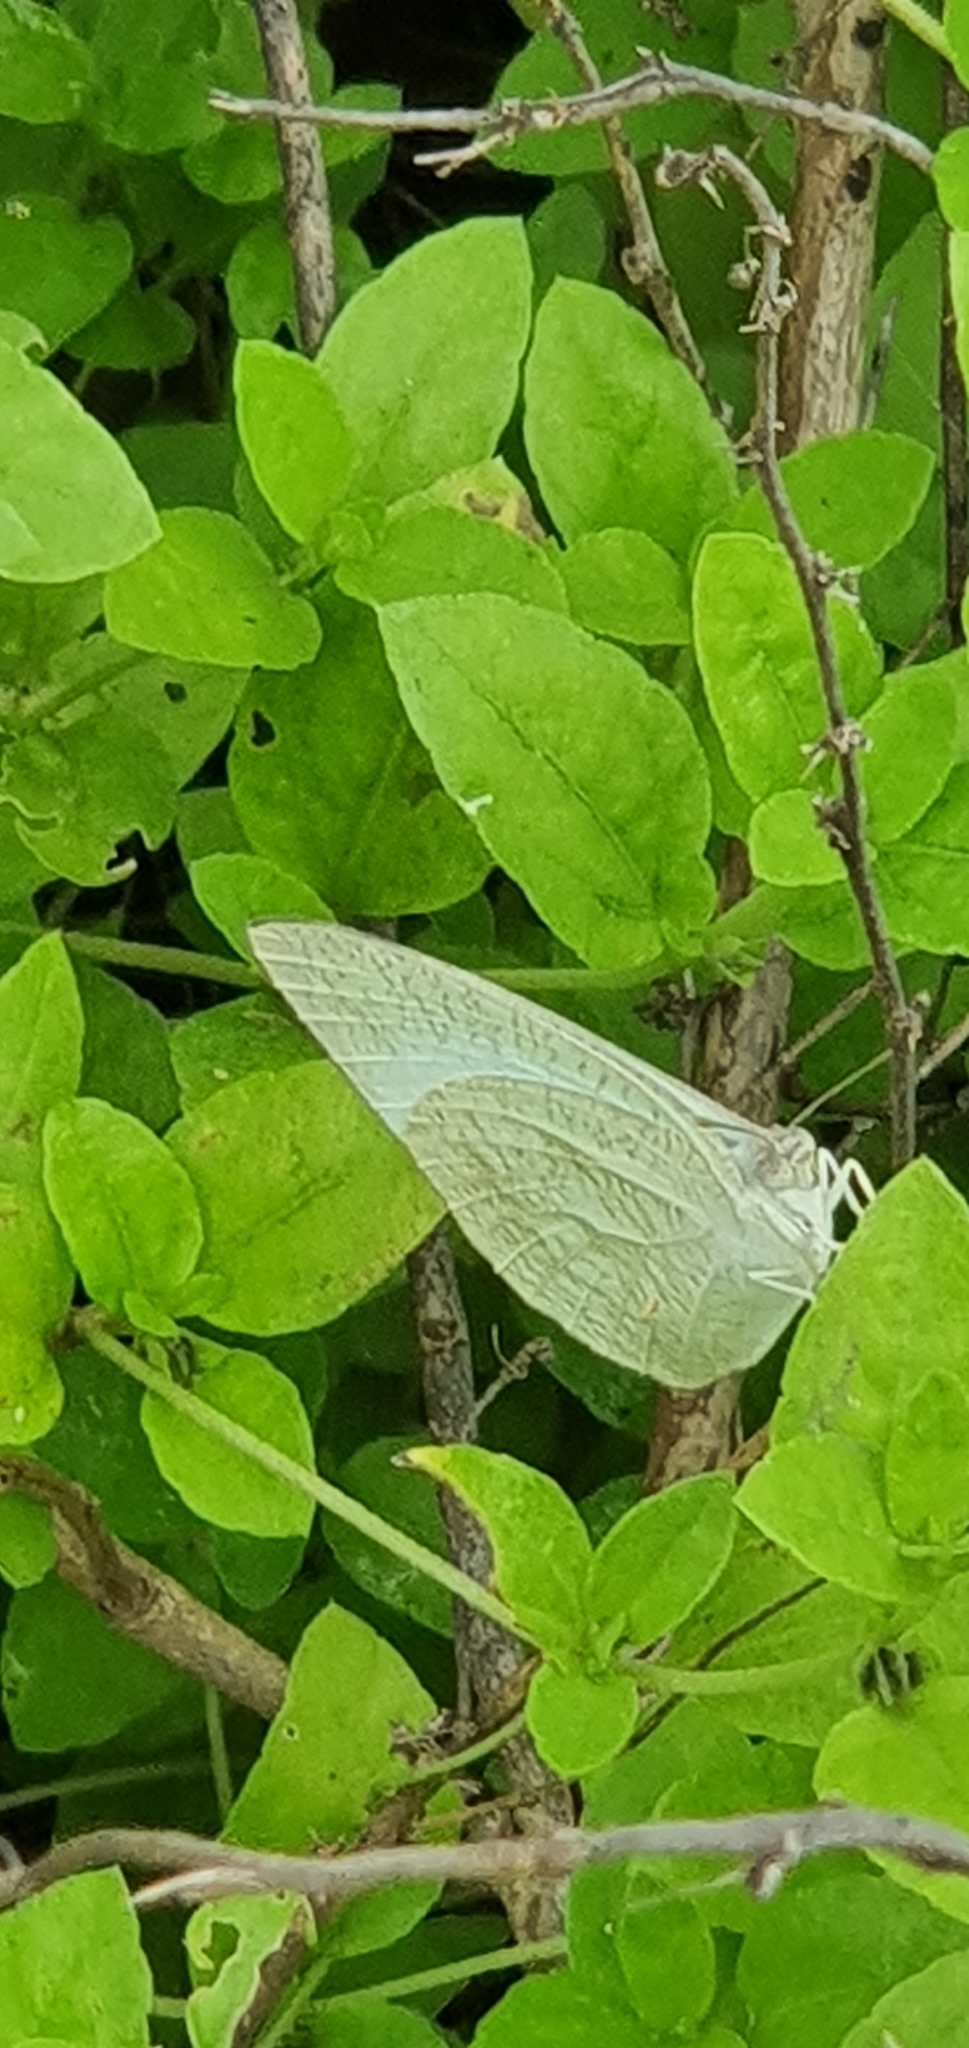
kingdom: Animalia
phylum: Arthropoda
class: Insecta
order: Lepidoptera
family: Pieridae
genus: Catopsilia
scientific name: Catopsilia pyranthe
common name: Mottled emigrant
